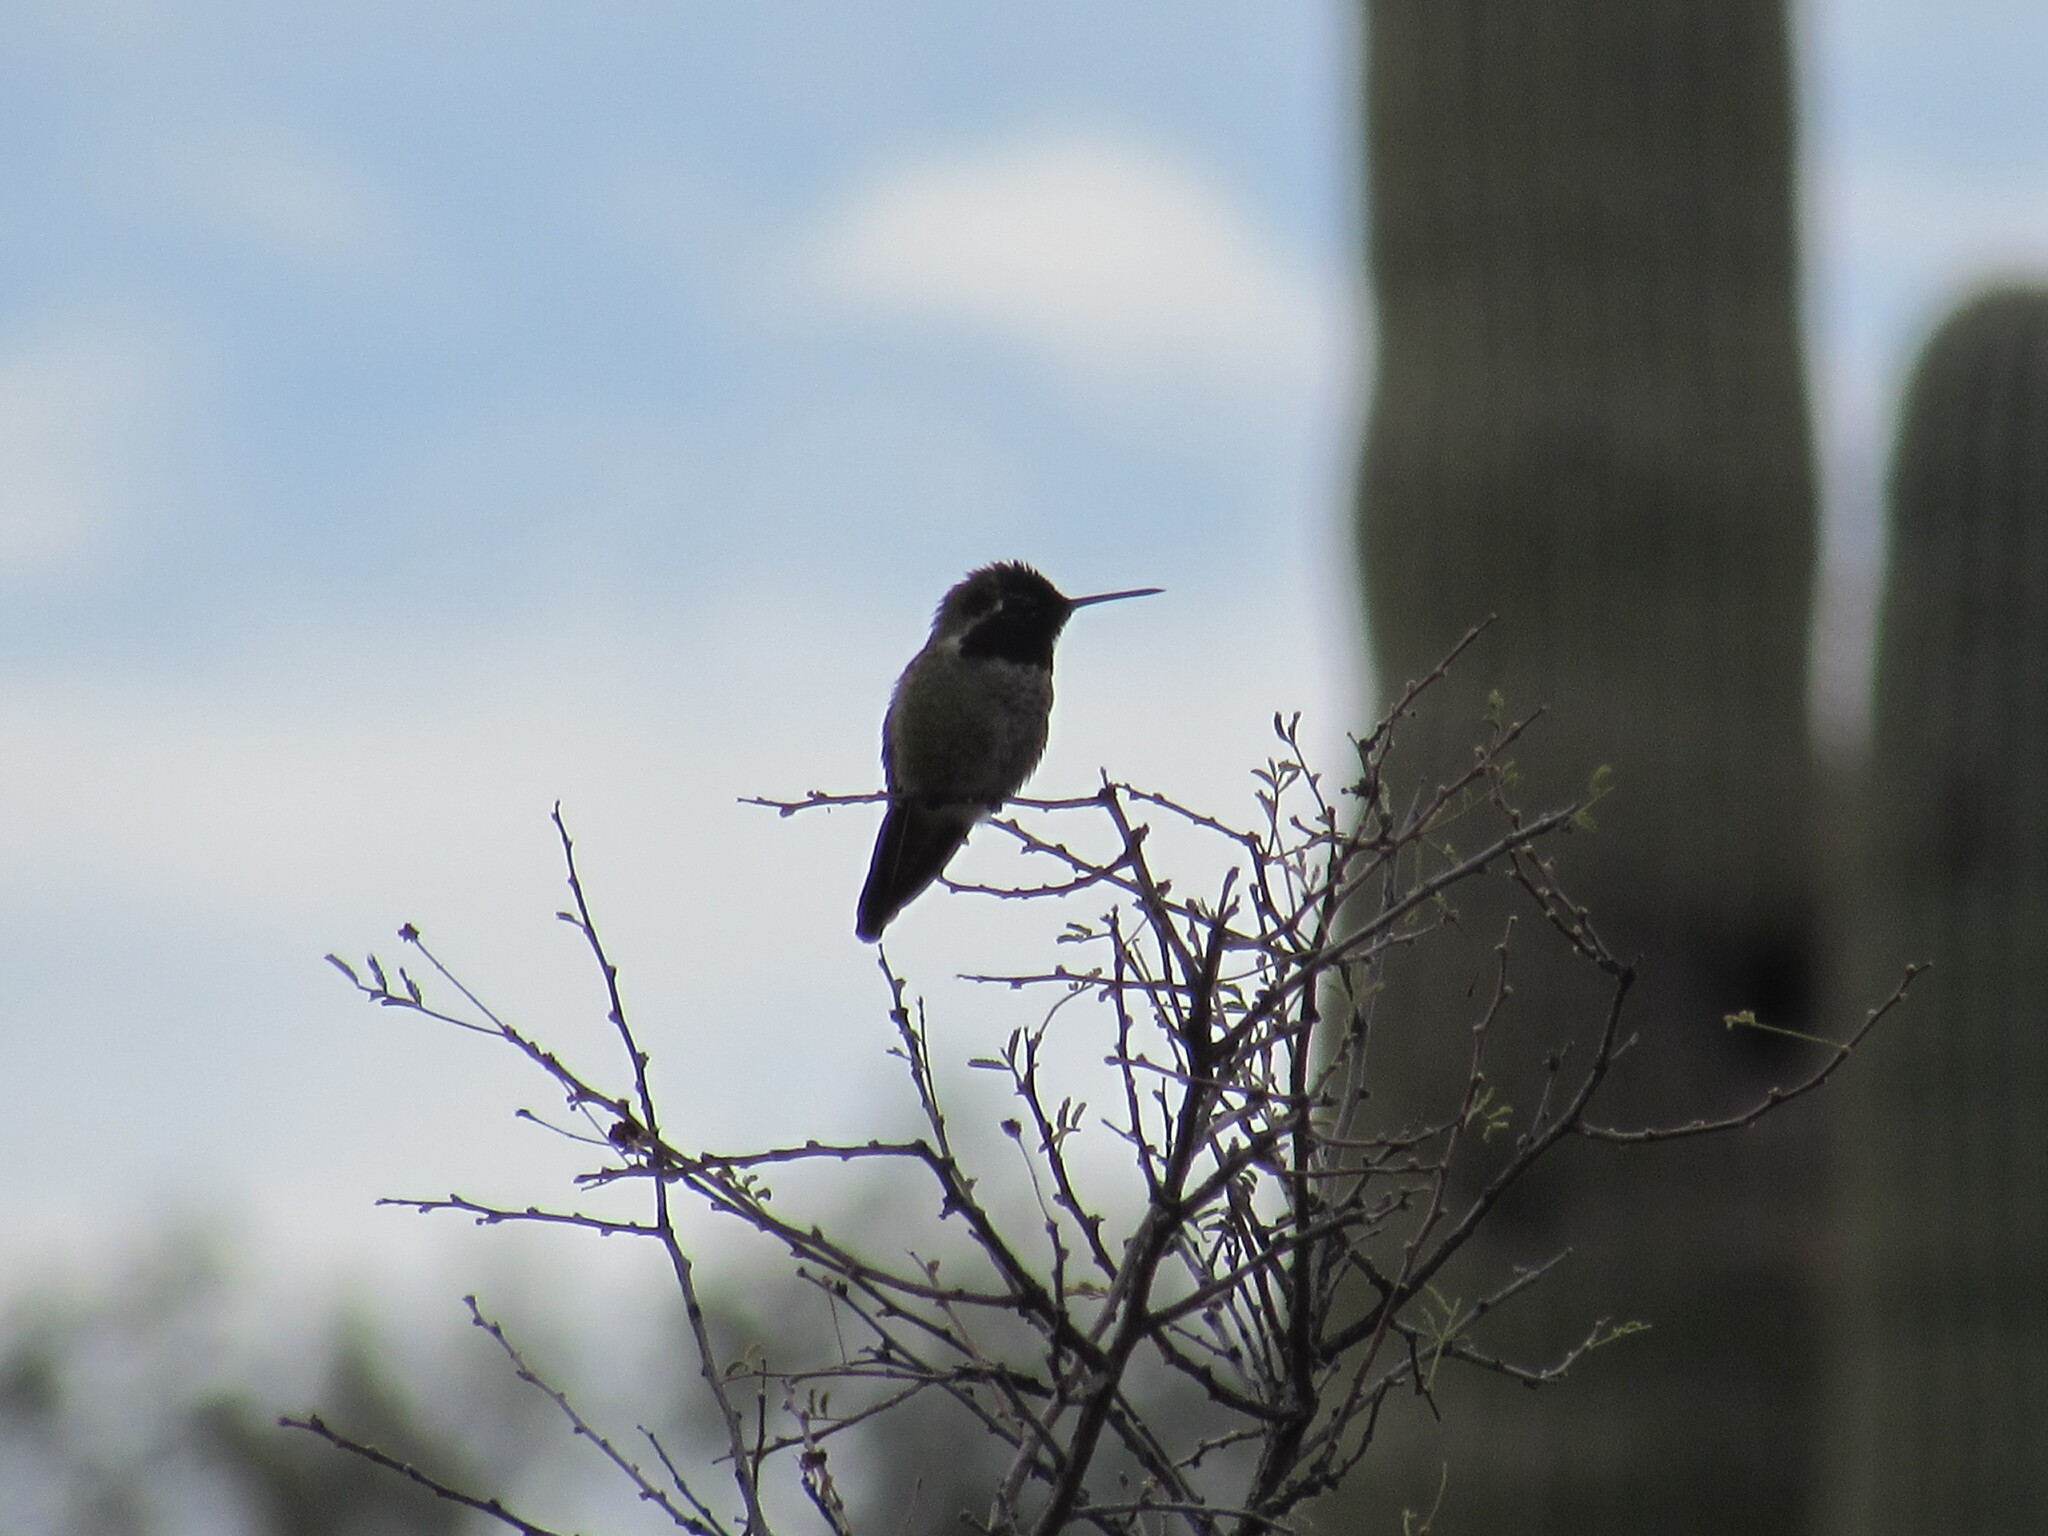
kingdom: Animalia
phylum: Chordata
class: Aves
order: Apodiformes
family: Trochilidae
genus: Calypte
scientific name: Calypte anna
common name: Anna's hummingbird
